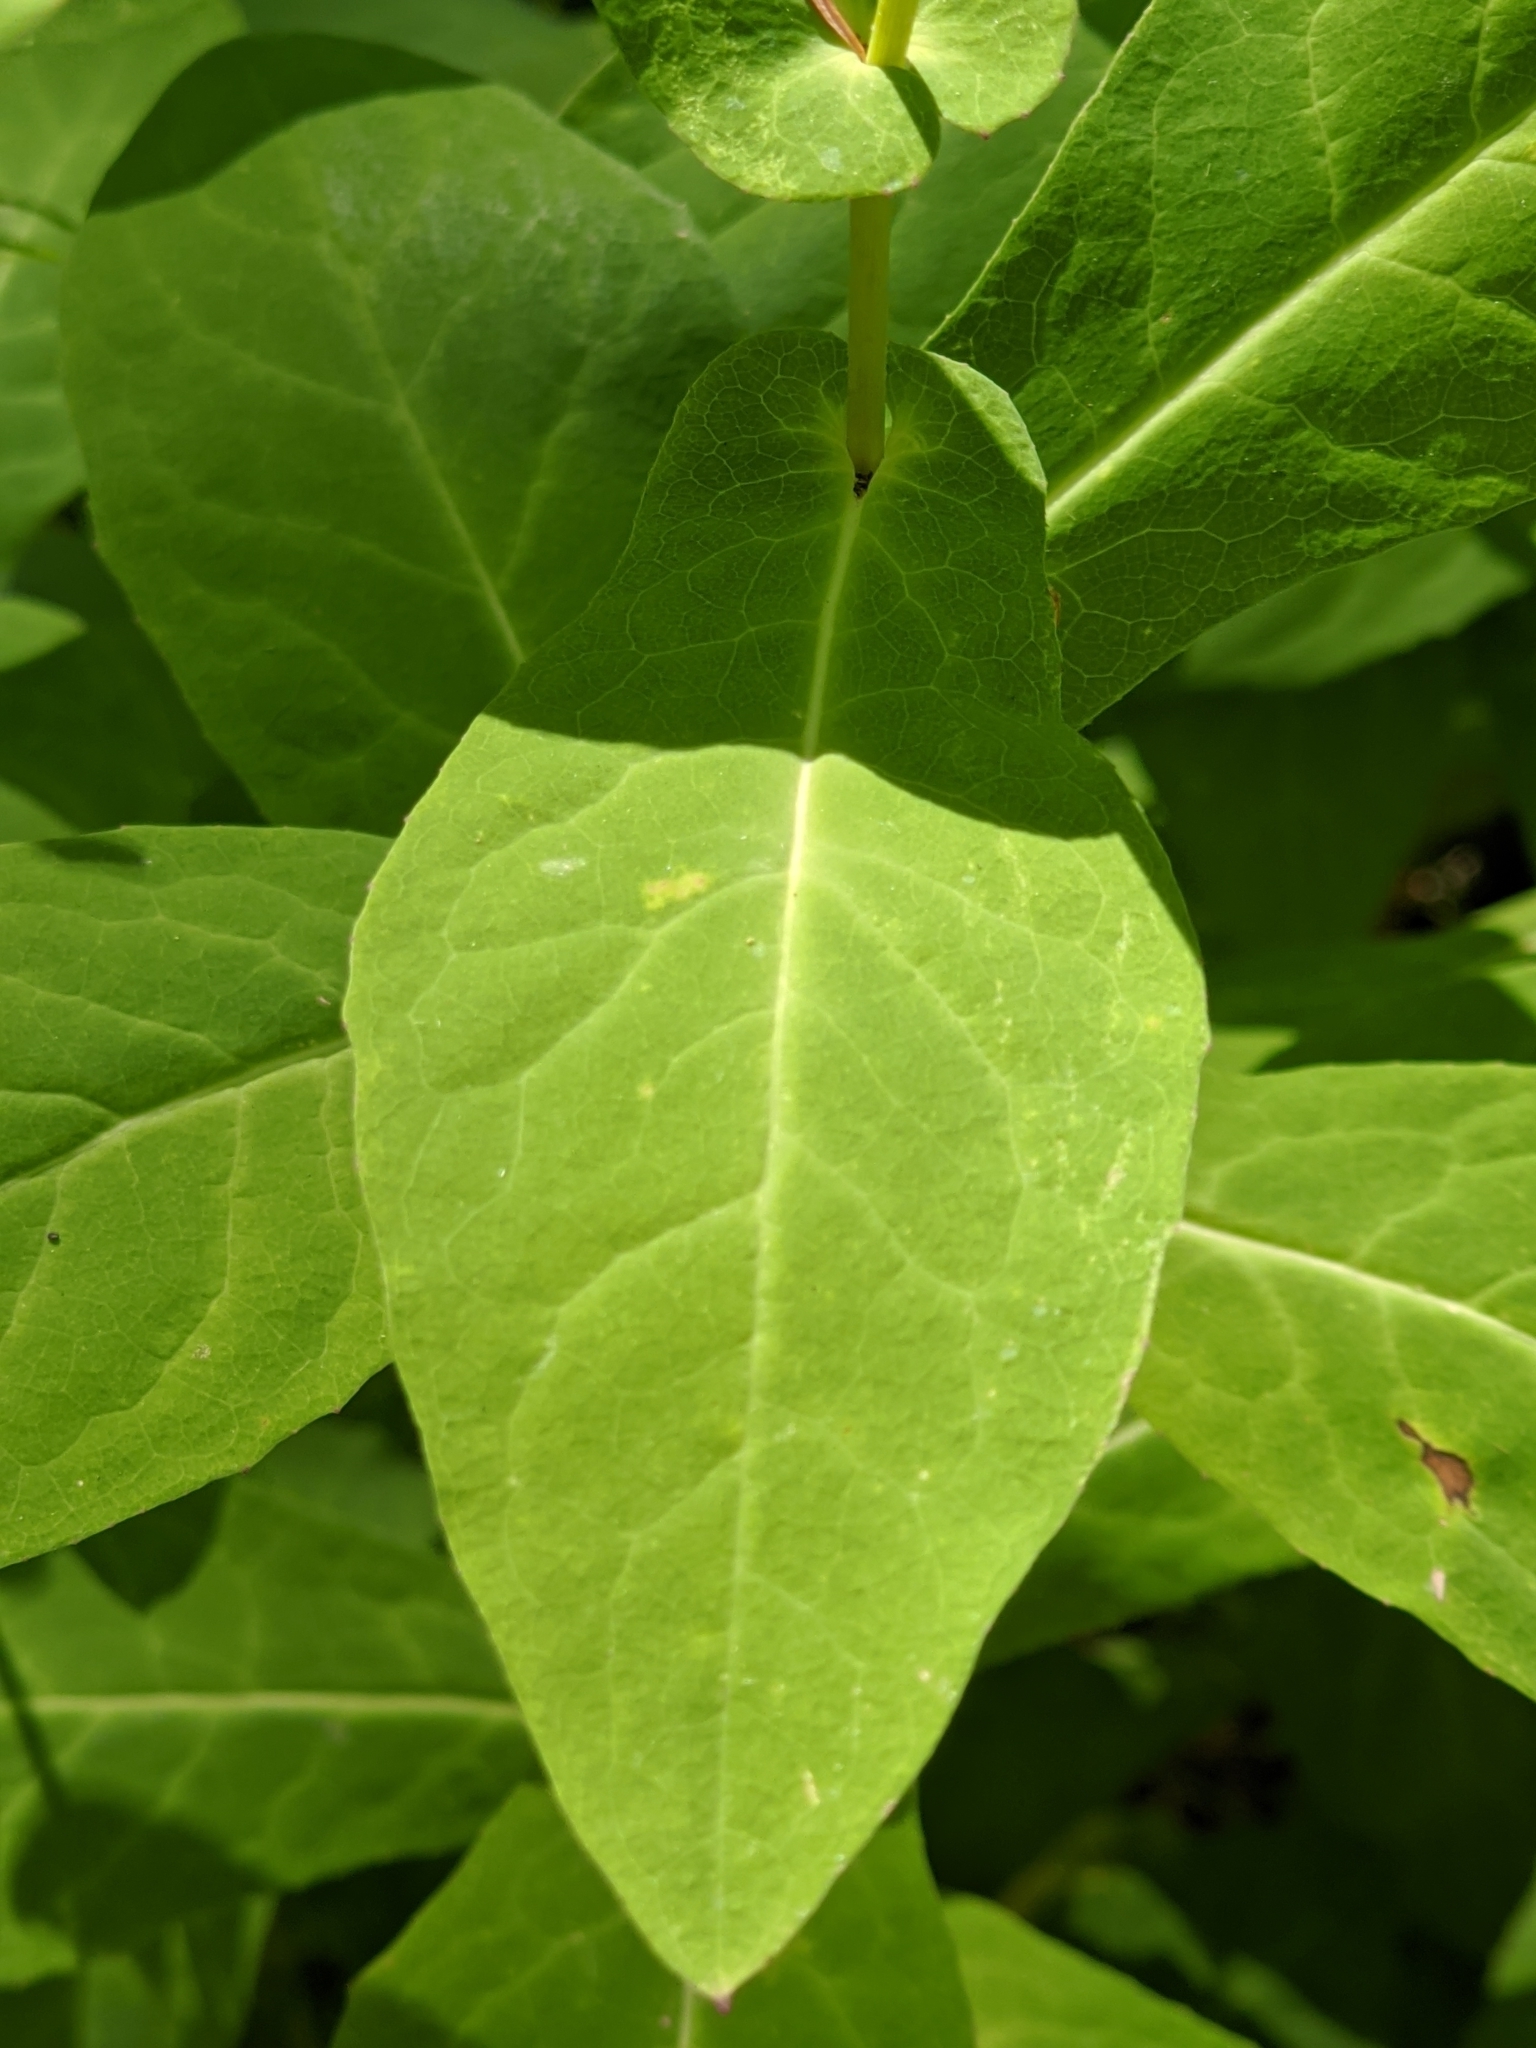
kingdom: Plantae
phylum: Tracheophyta
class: Magnoliopsida
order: Asterales
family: Asteraceae
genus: Prenanthes
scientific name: Prenanthes purpurea
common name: Purple lettuce
